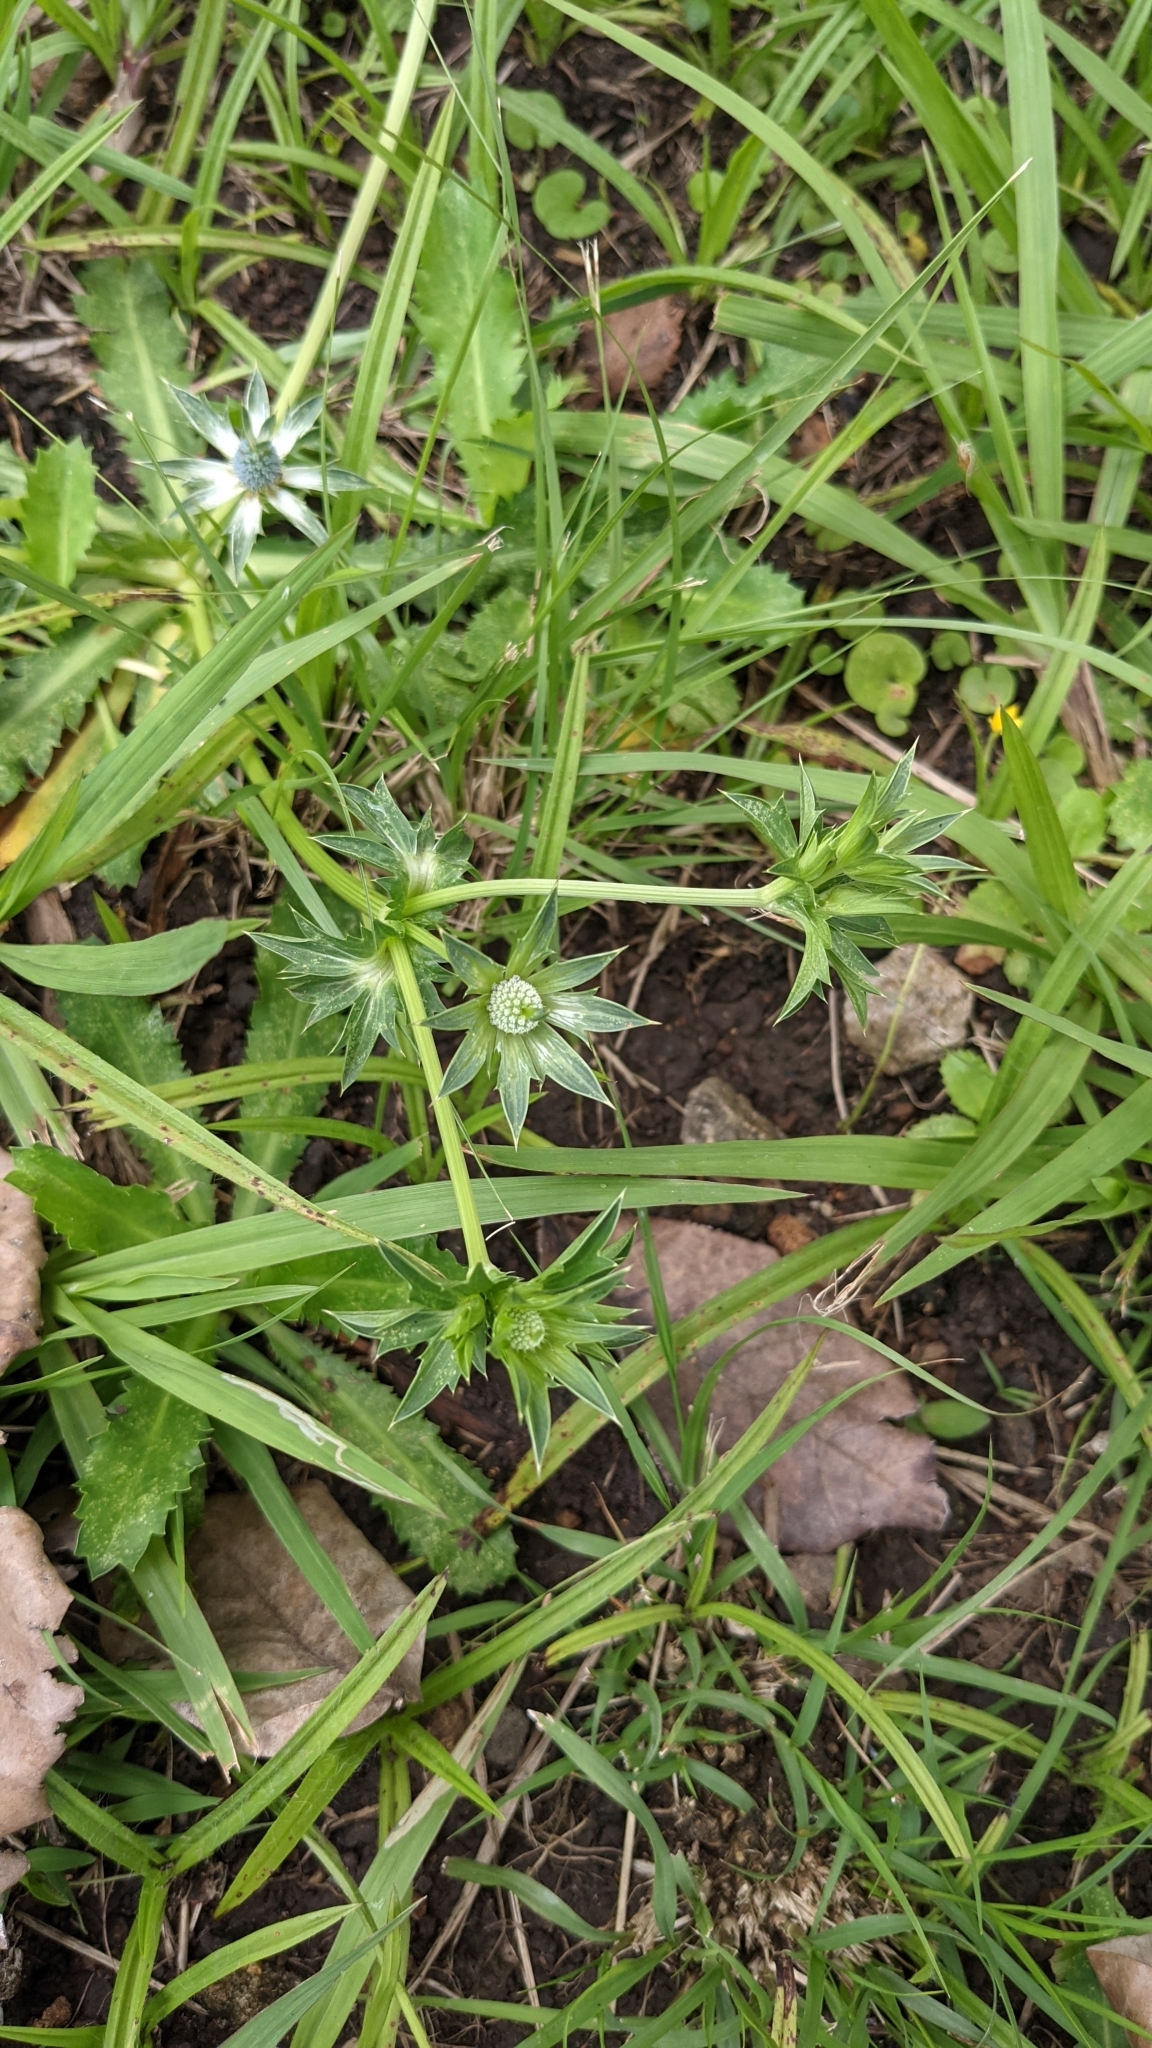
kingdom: Plantae
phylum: Tracheophyta
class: Magnoliopsida
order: Apiales
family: Apiaceae
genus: Eryngium
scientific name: Eryngium carlinae
